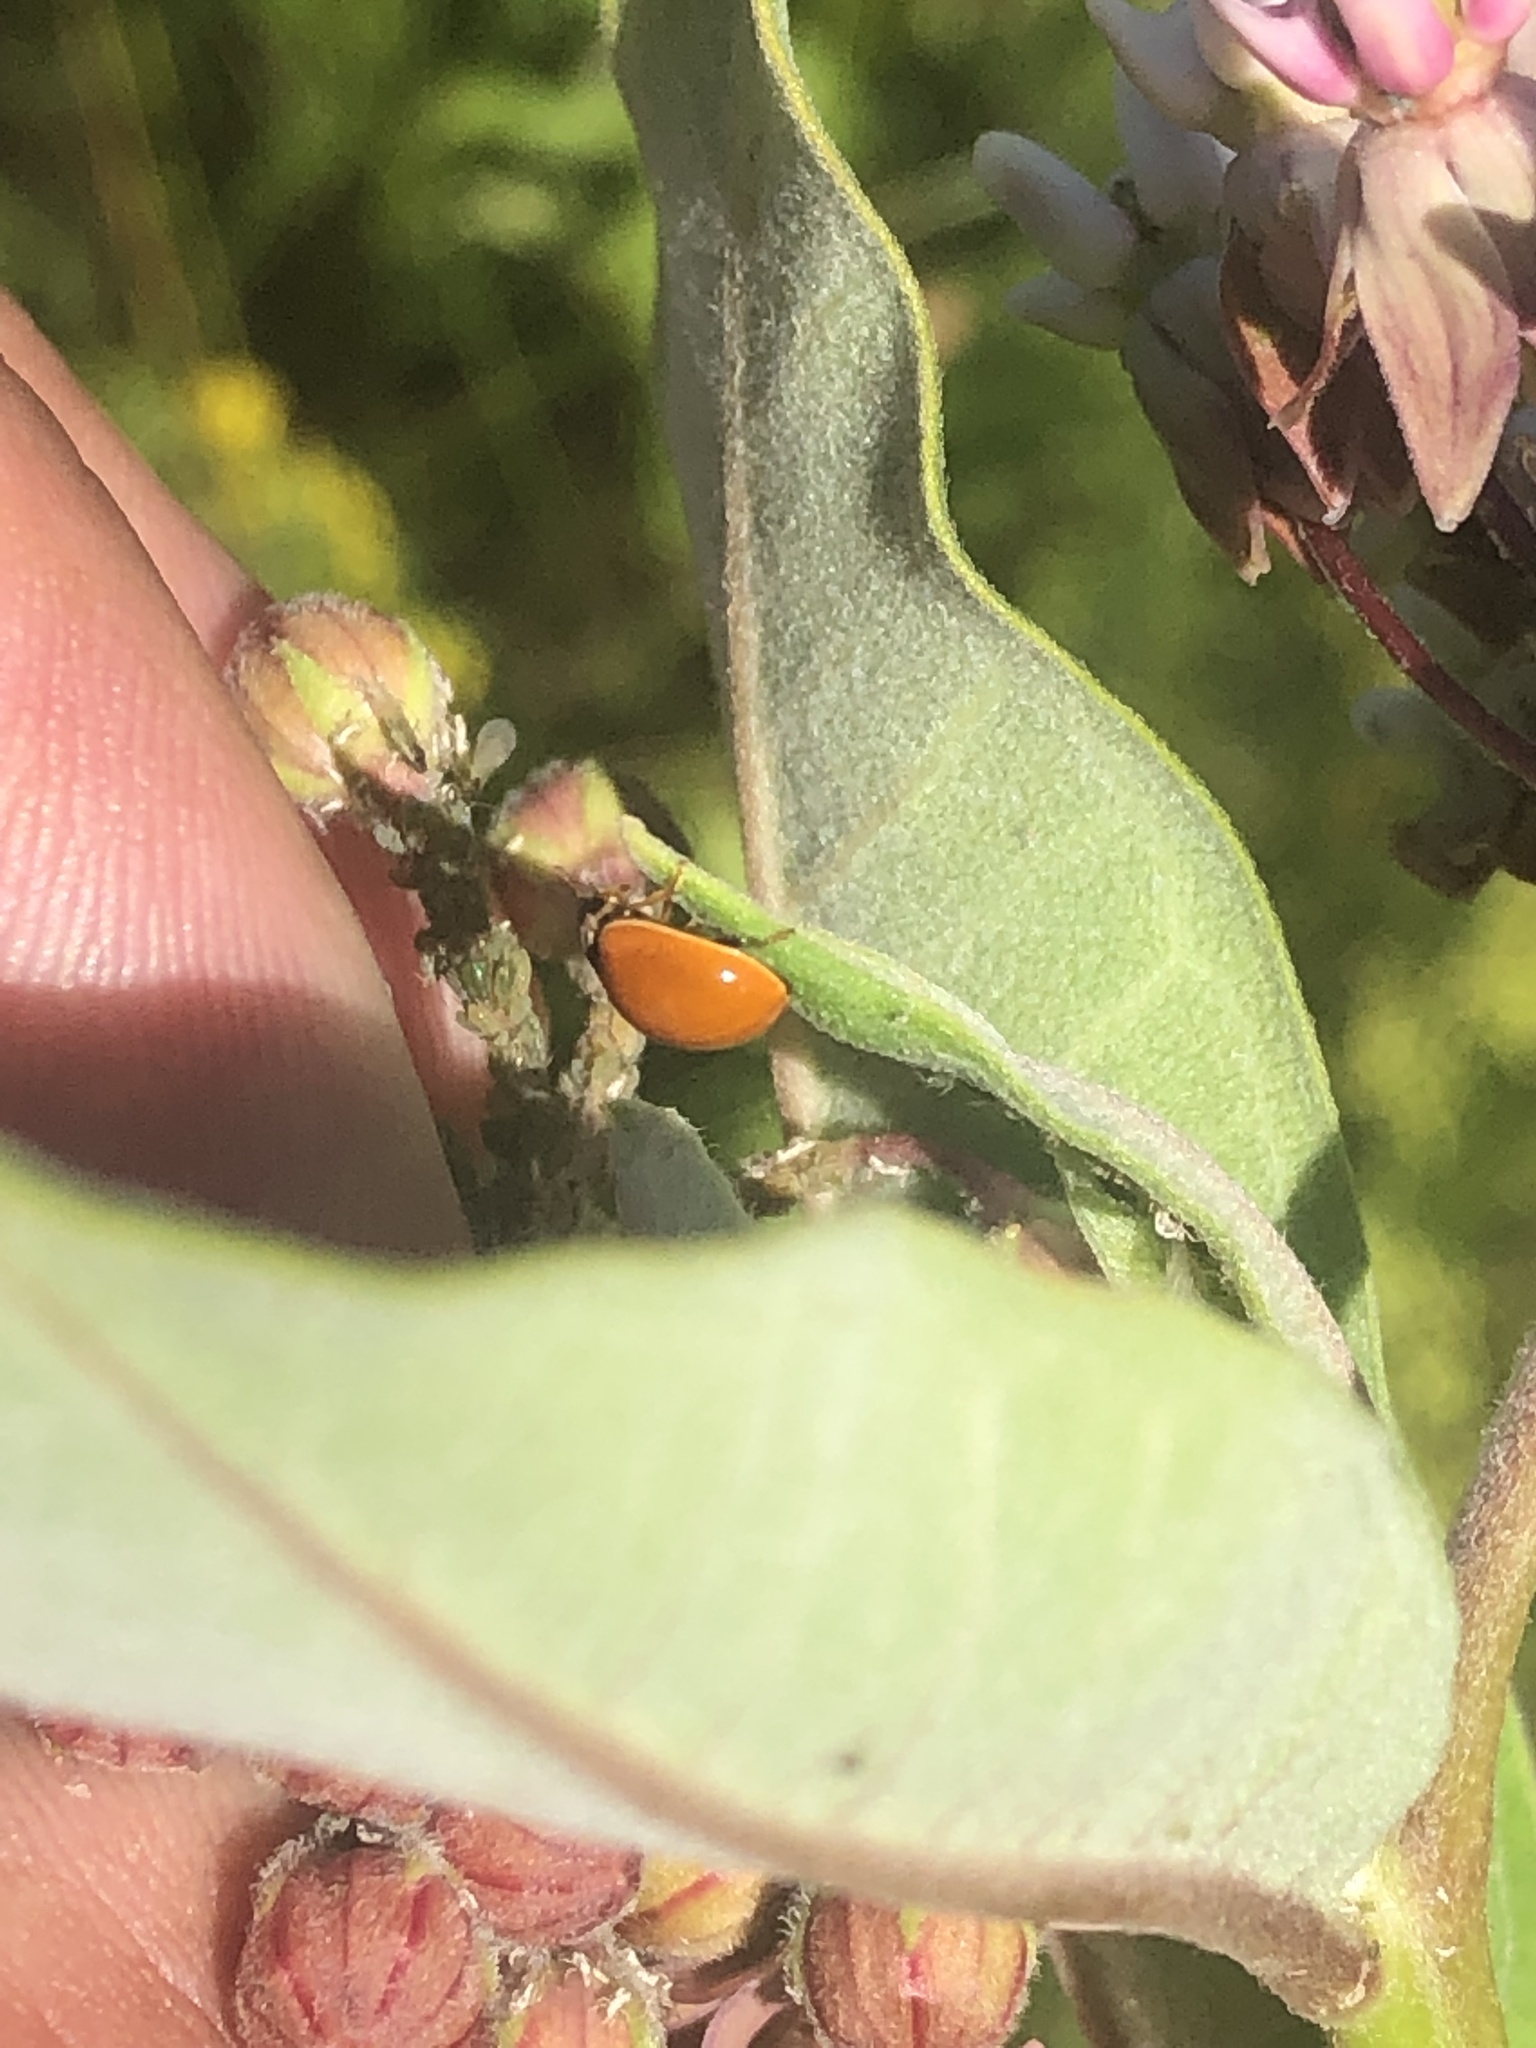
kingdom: Animalia
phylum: Arthropoda
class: Insecta
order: Coleoptera
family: Coccinellidae
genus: Cycloneda
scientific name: Cycloneda munda
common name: Polished lady beetle
